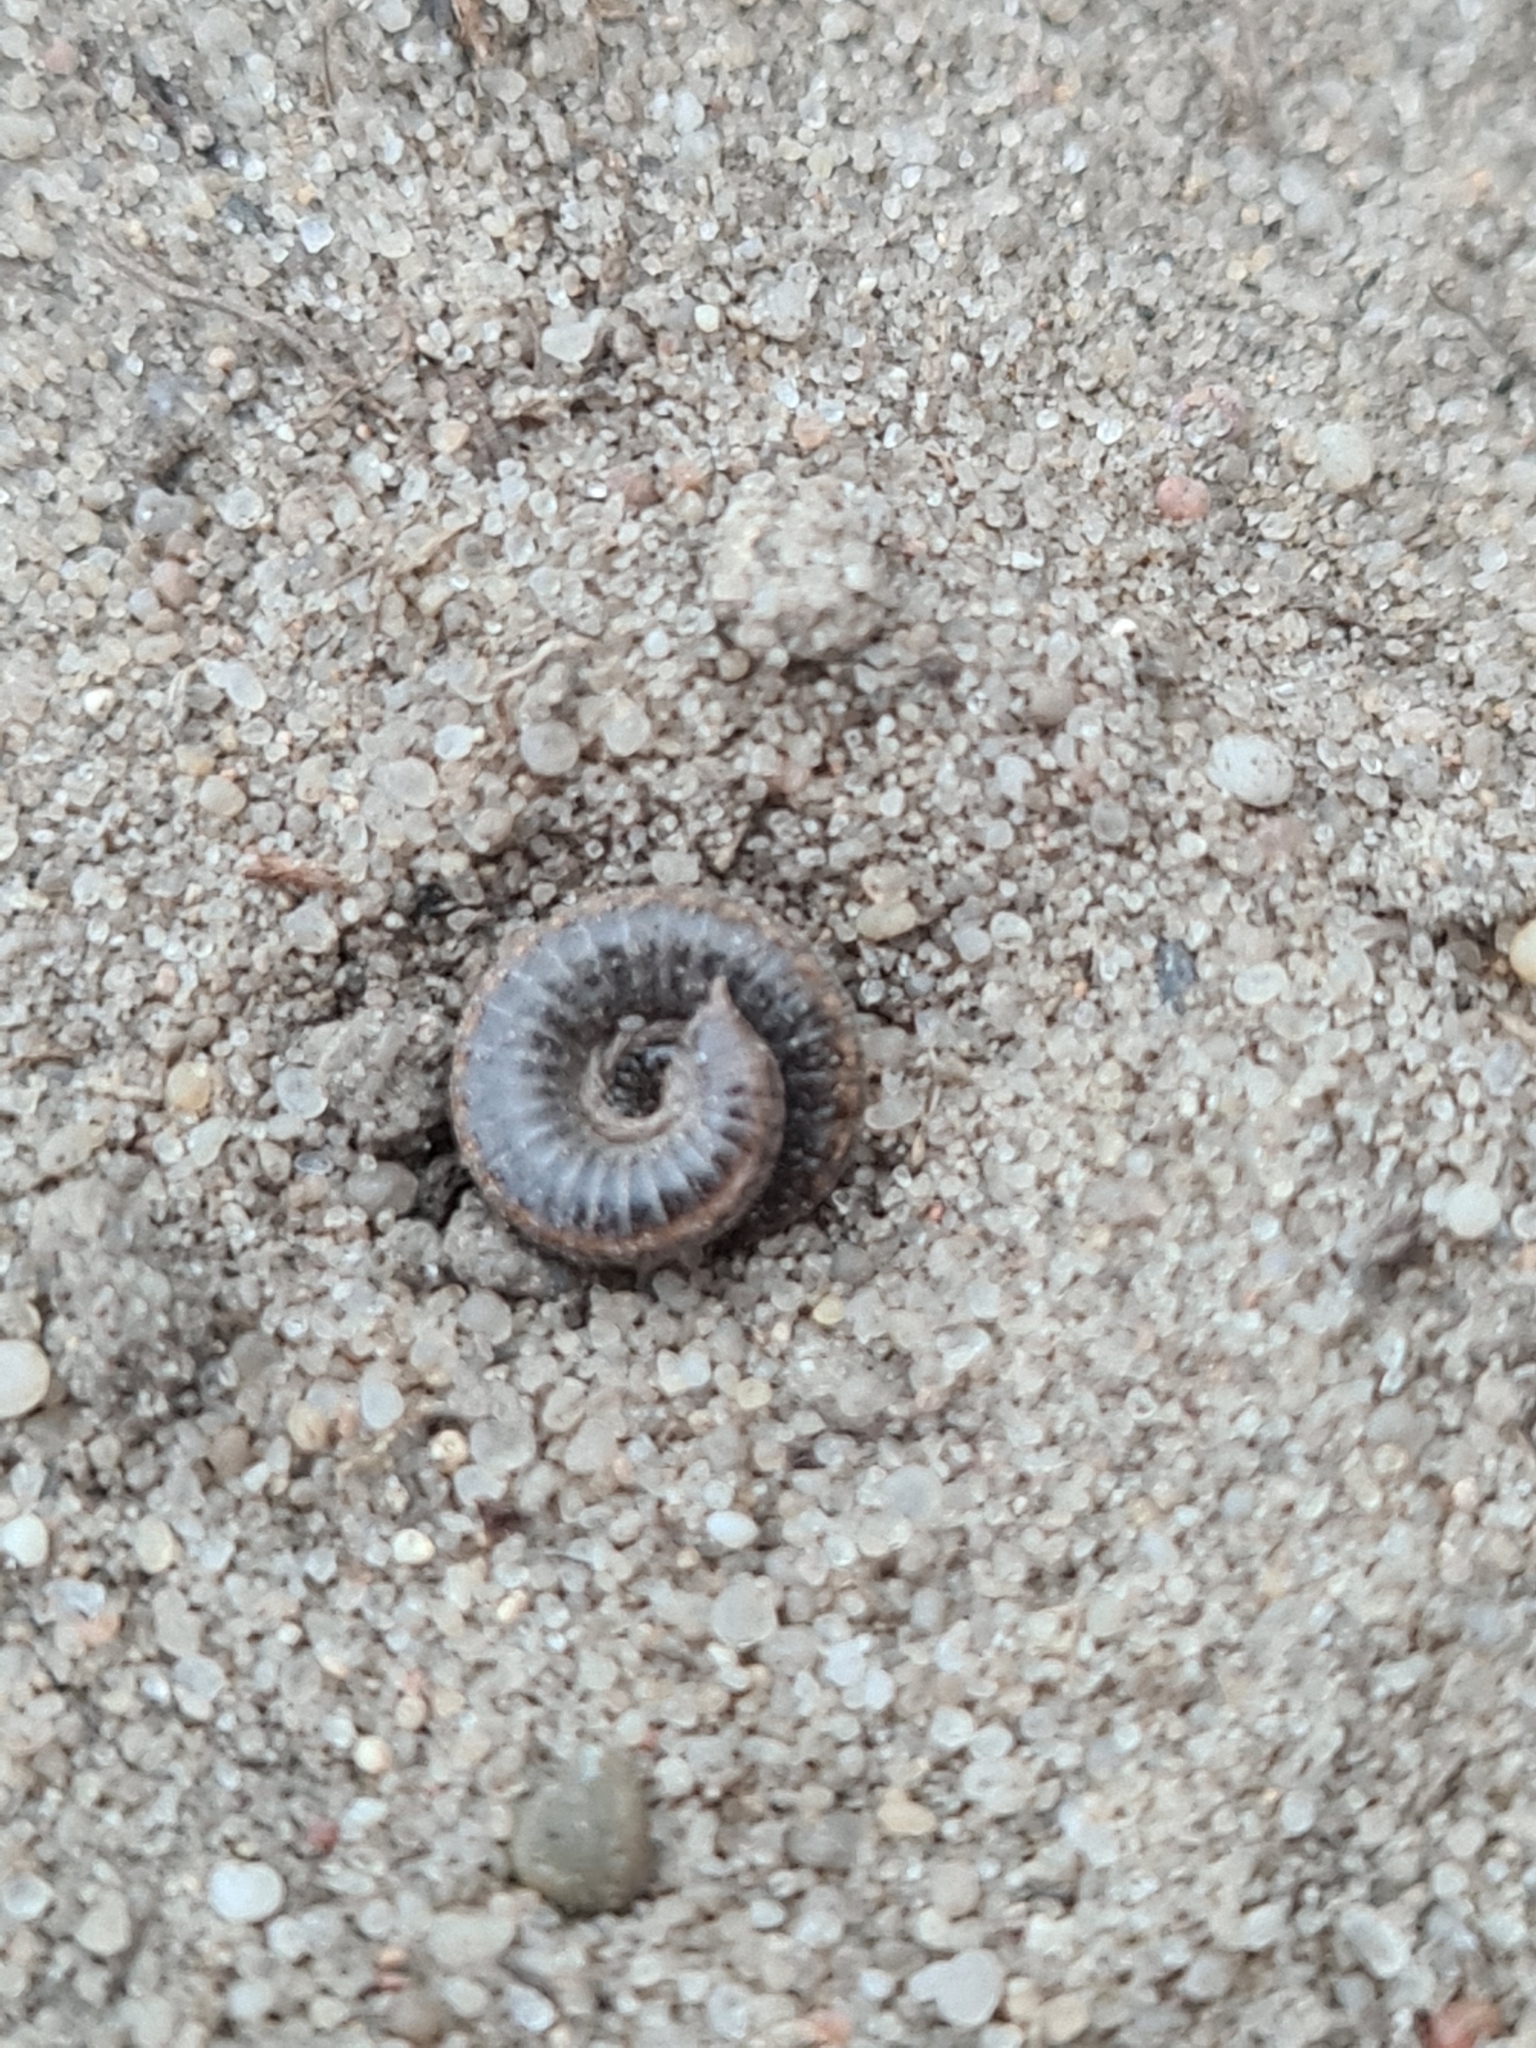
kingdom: Animalia
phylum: Arthropoda
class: Diplopoda
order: Julida
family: Julidae
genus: Ommatoiulus
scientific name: Ommatoiulus sabulosus
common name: Striped millipede
